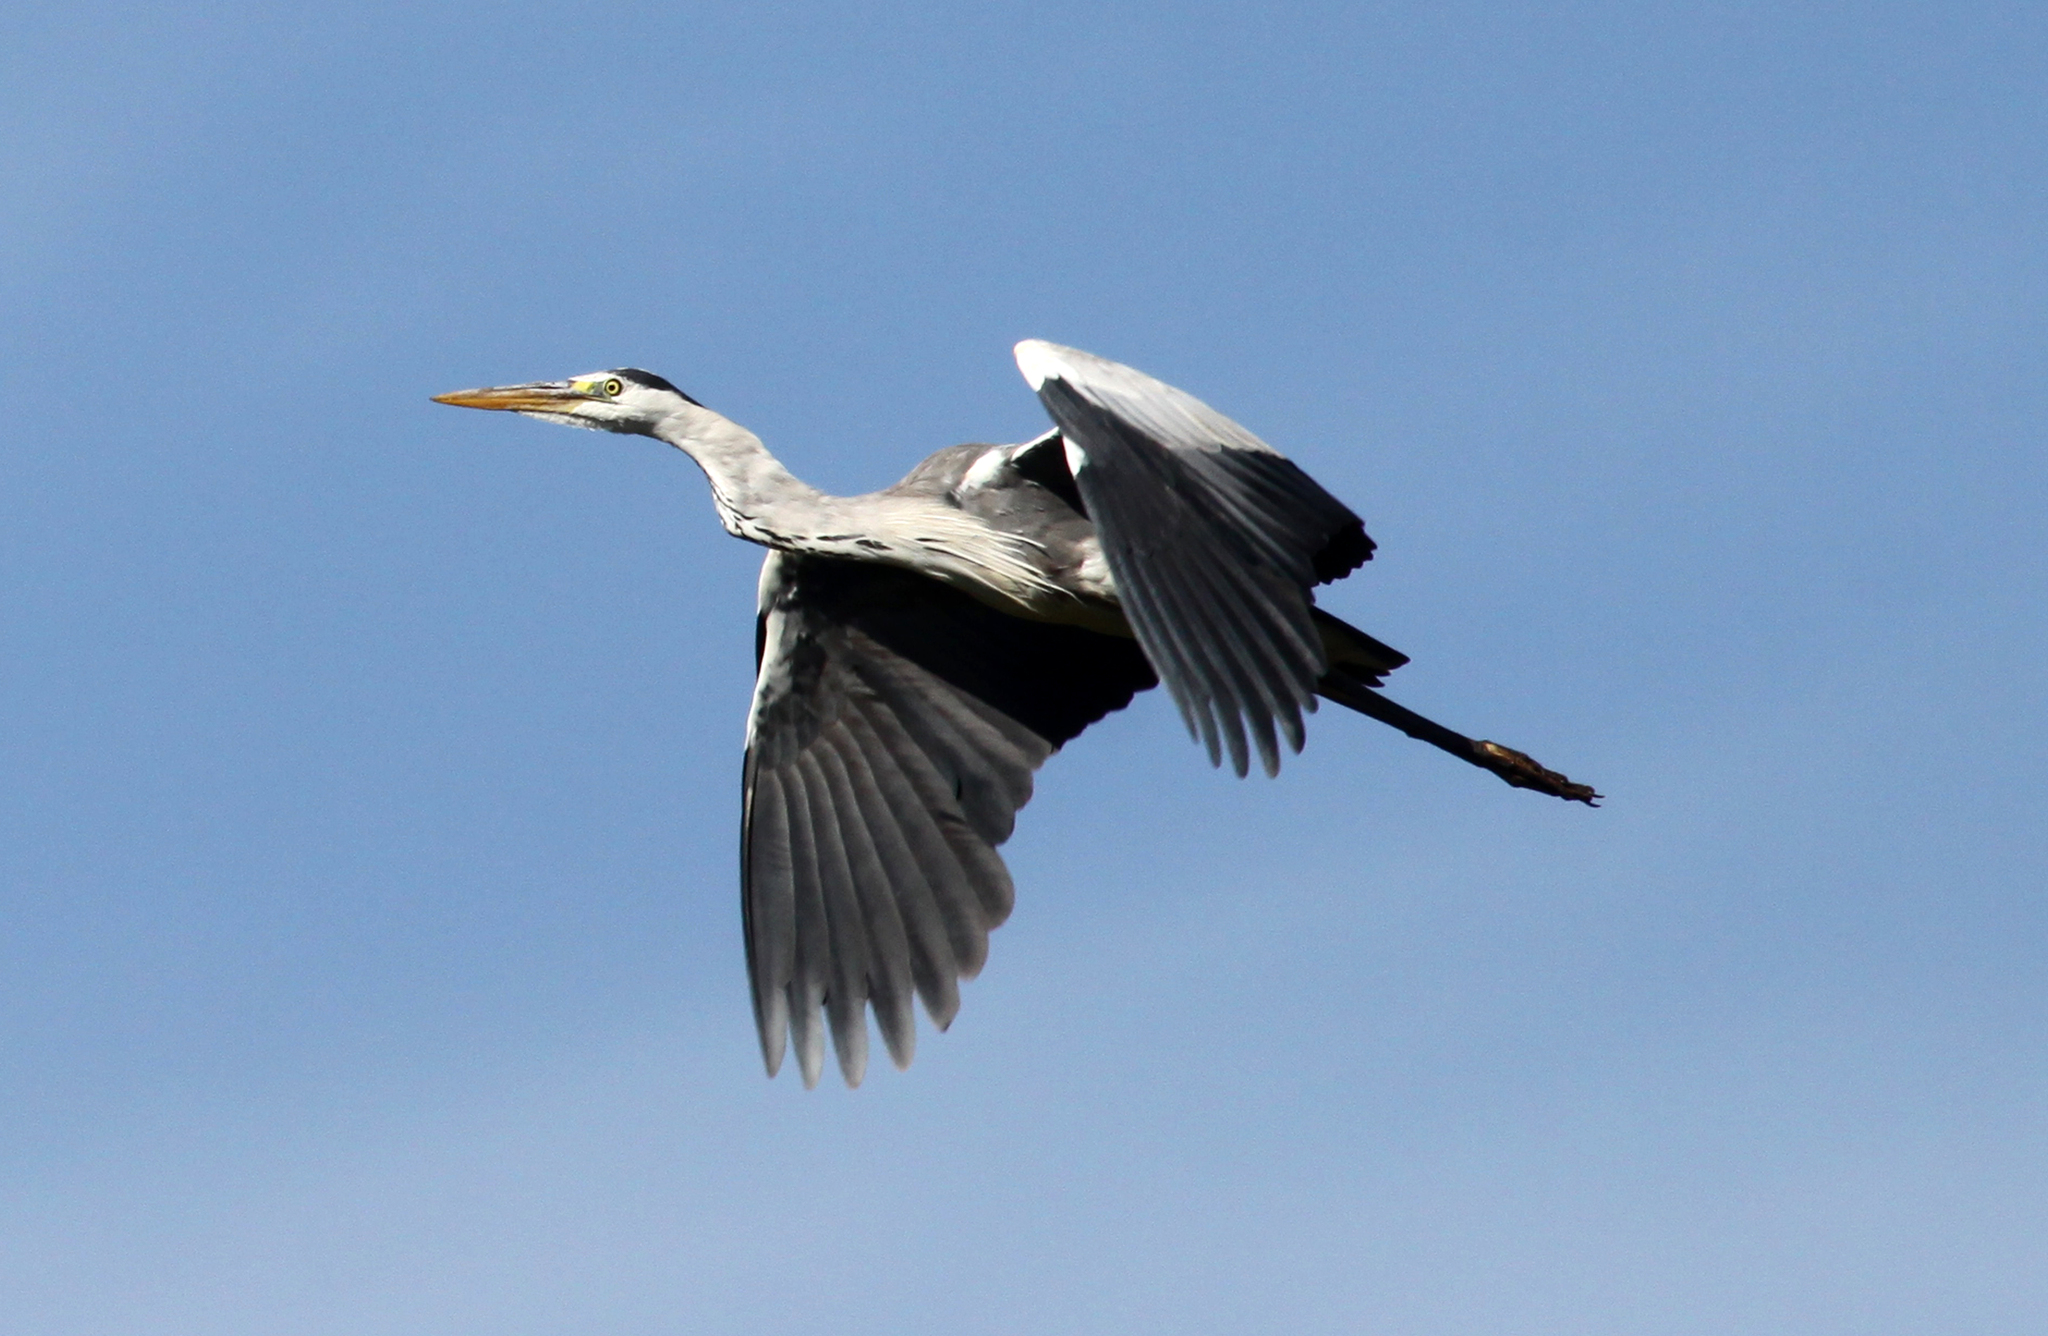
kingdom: Animalia
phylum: Chordata
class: Aves
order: Pelecaniformes
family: Ardeidae
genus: Ardea
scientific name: Ardea cinerea
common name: Grey heron
